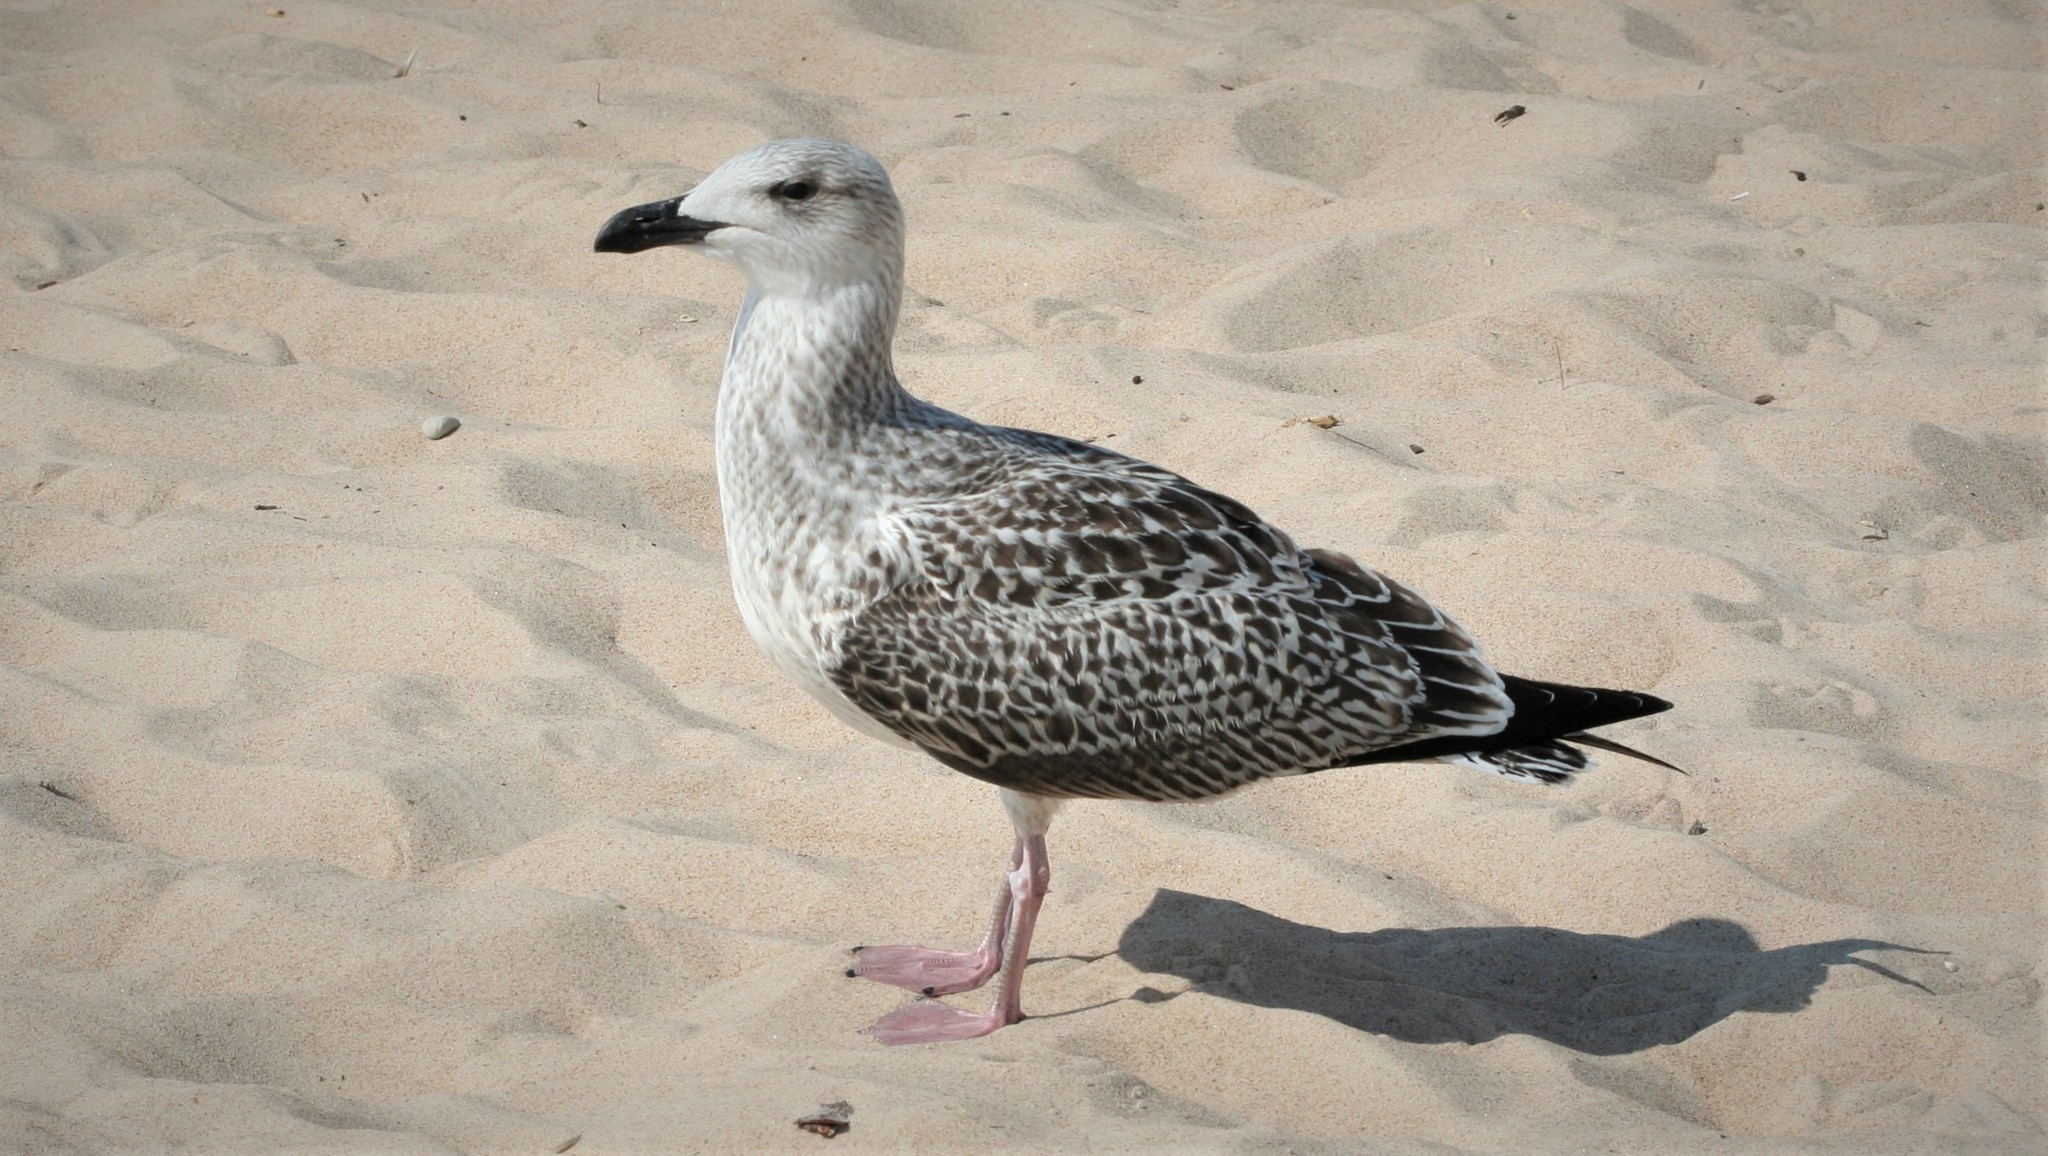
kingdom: Animalia
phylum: Chordata
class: Aves
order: Charadriiformes
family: Laridae
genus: Larus
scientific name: Larus marinus
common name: Great black-backed gull
